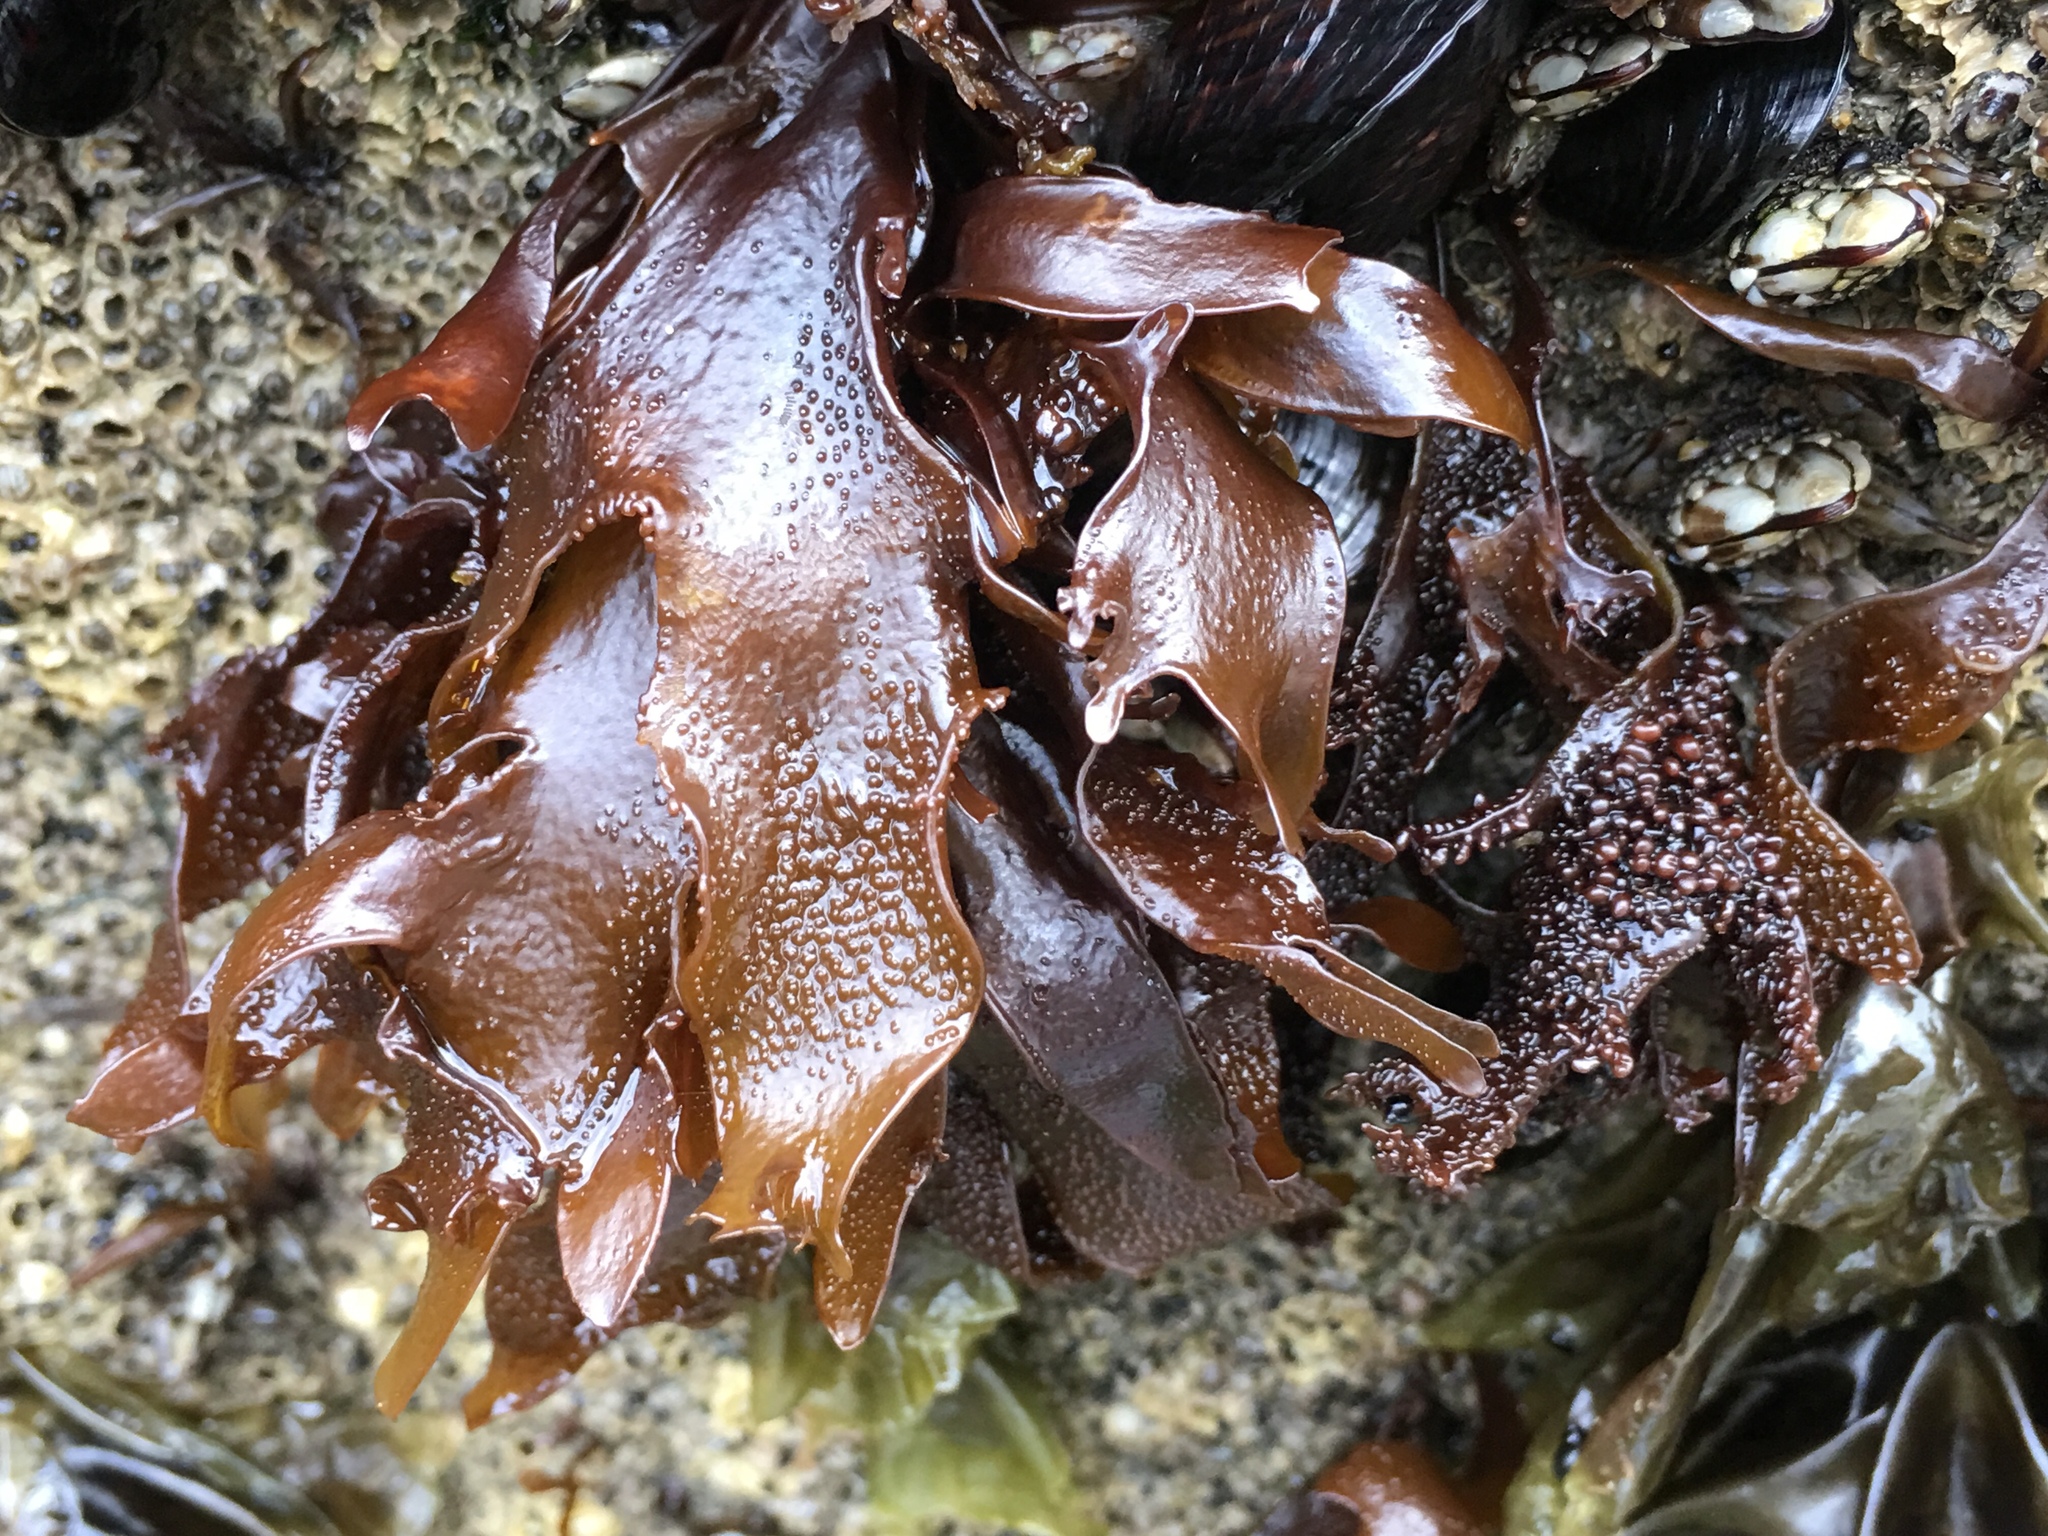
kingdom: Plantae
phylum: Rhodophyta
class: Florideophyceae
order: Gigartinales
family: Phyllophoraceae
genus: Mastocarpus
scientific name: Mastocarpus papillatus
